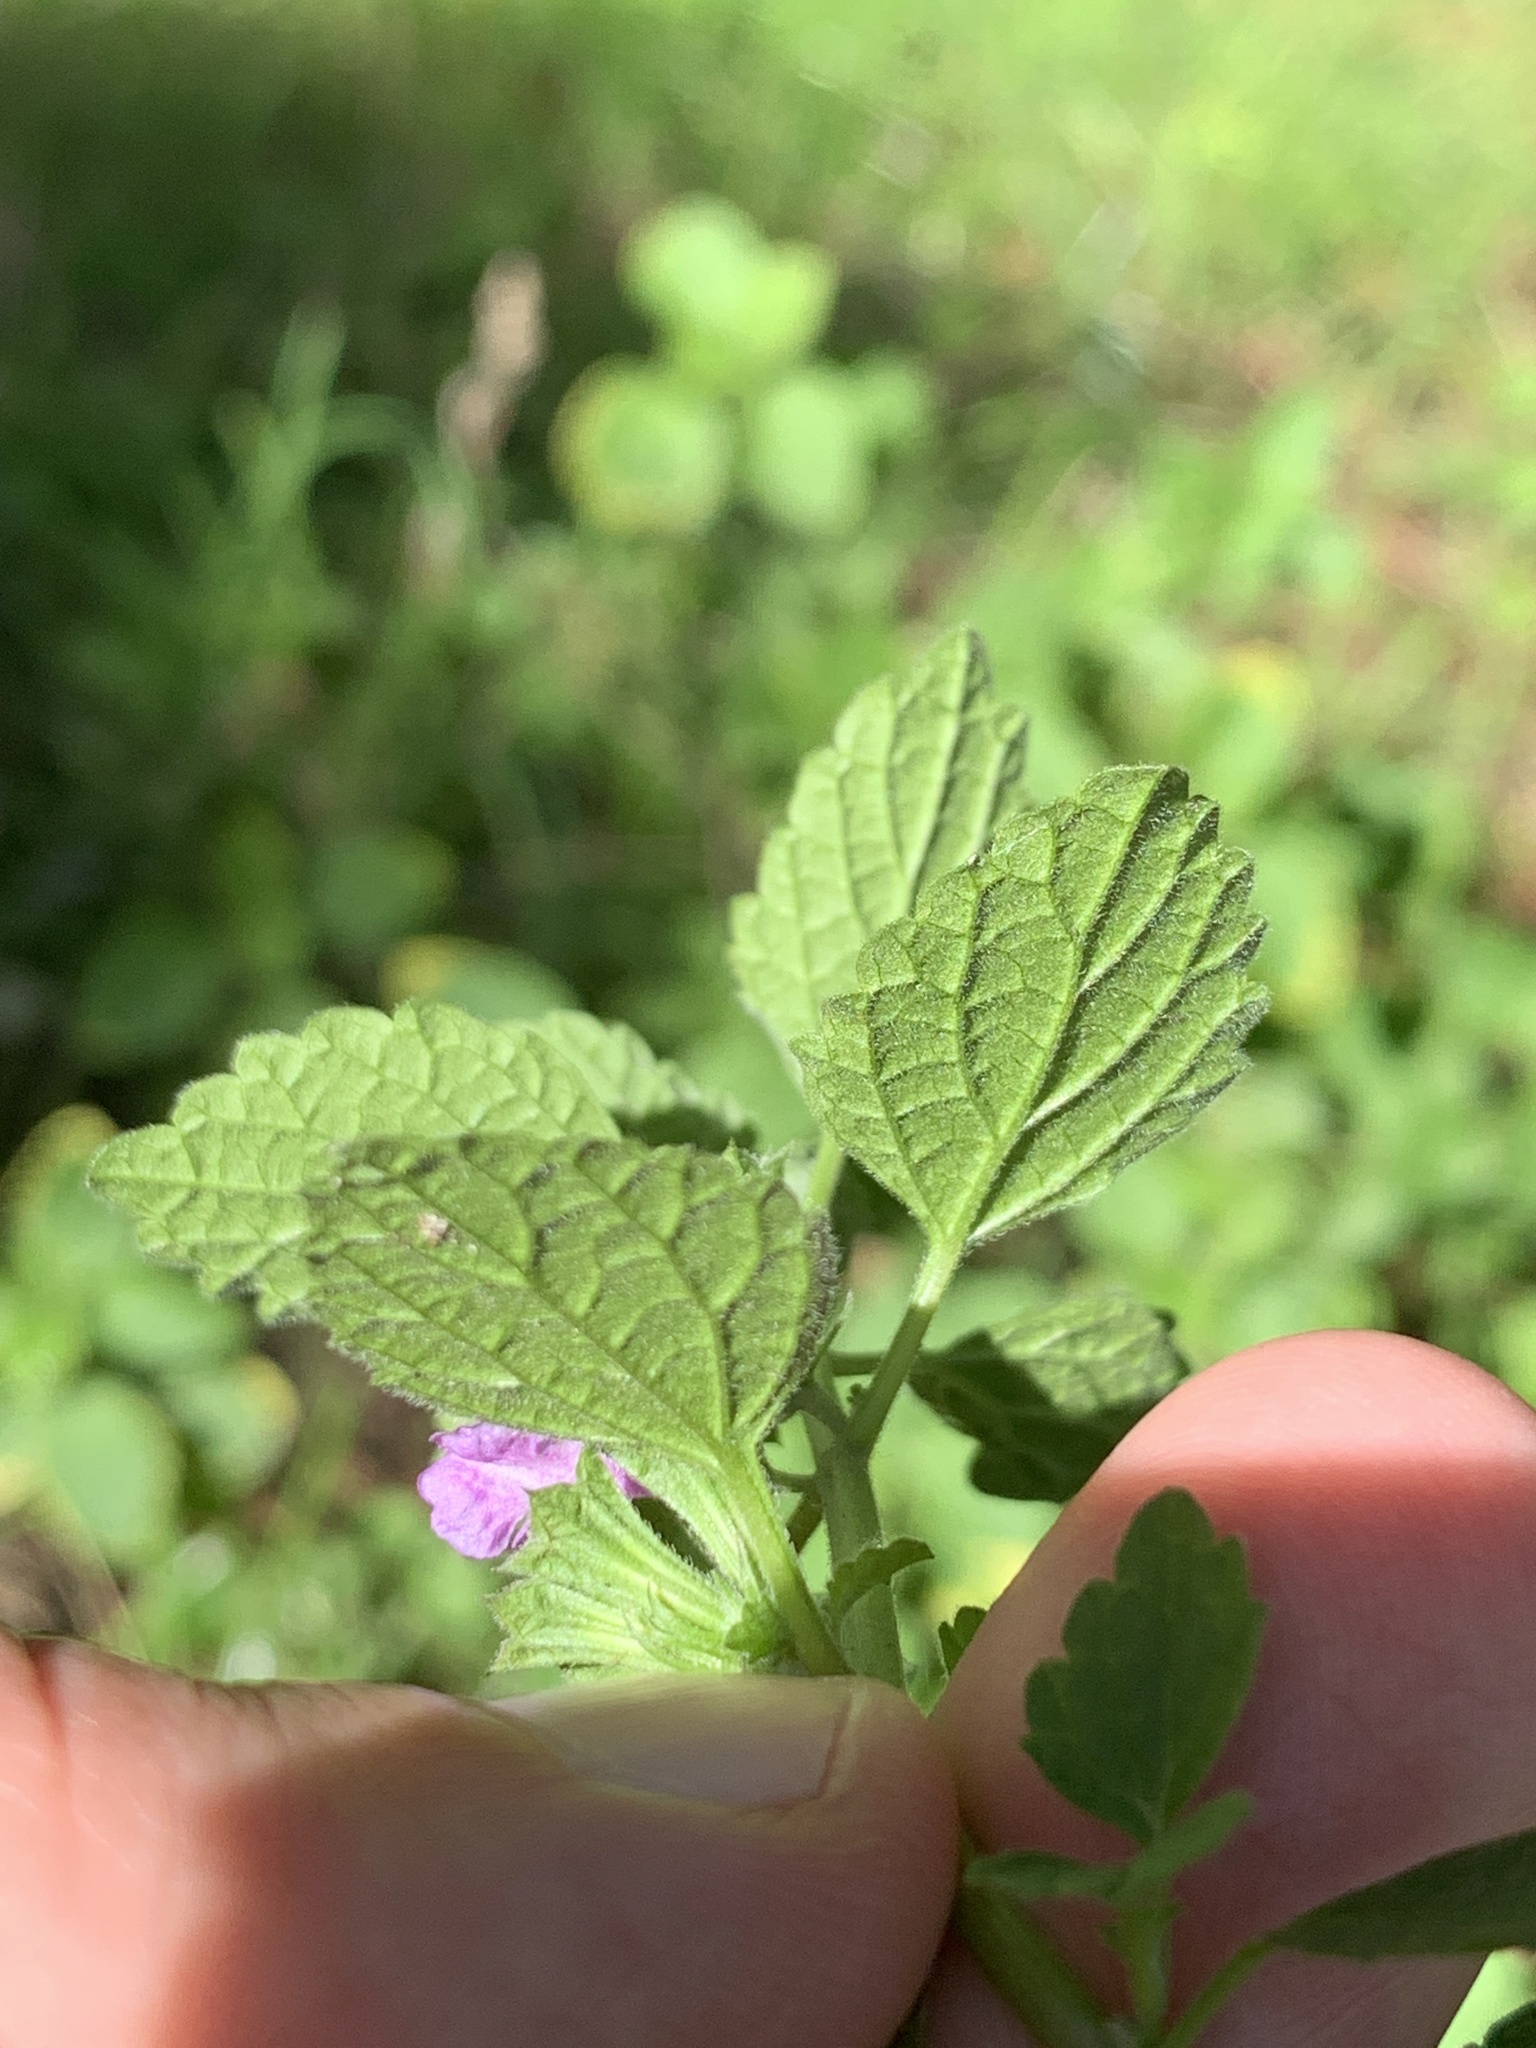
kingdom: Plantae
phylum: Tracheophyta
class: Magnoliopsida
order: Lamiales
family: Lamiaceae
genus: Ballota
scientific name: Ballota nigra
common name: Black horehound
